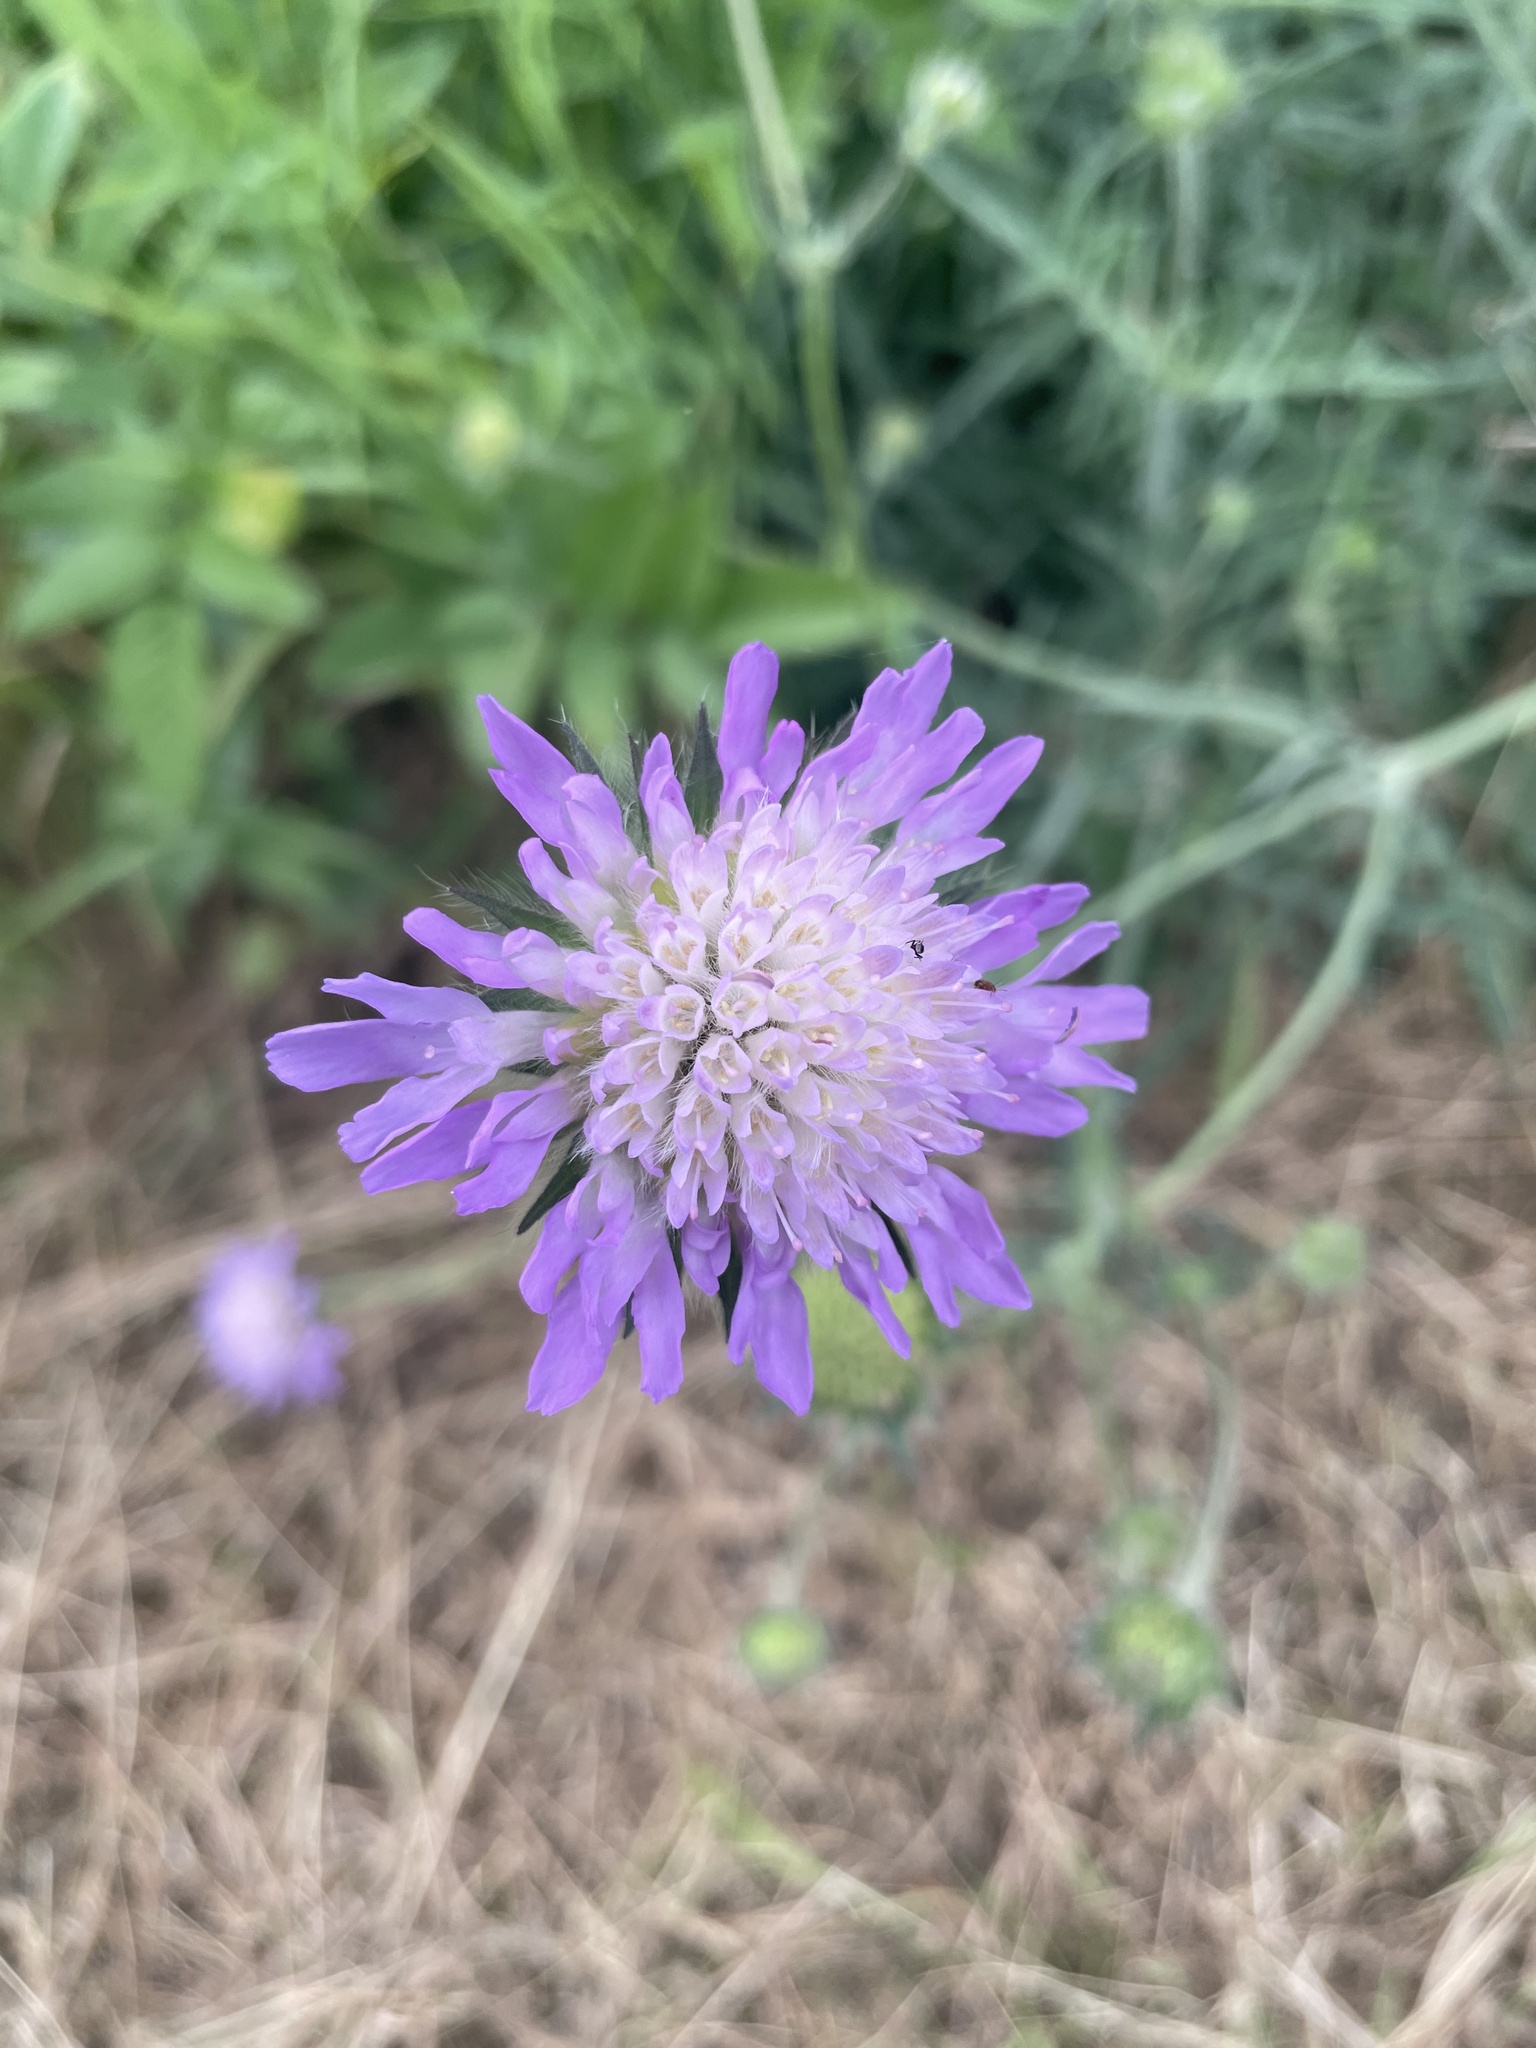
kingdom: Plantae
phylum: Tracheophyta
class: Magnoliopsida
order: Dipsacales
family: Caprifoliaceae
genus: Knautia
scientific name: Knautia arvensis
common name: Field scabiosa
